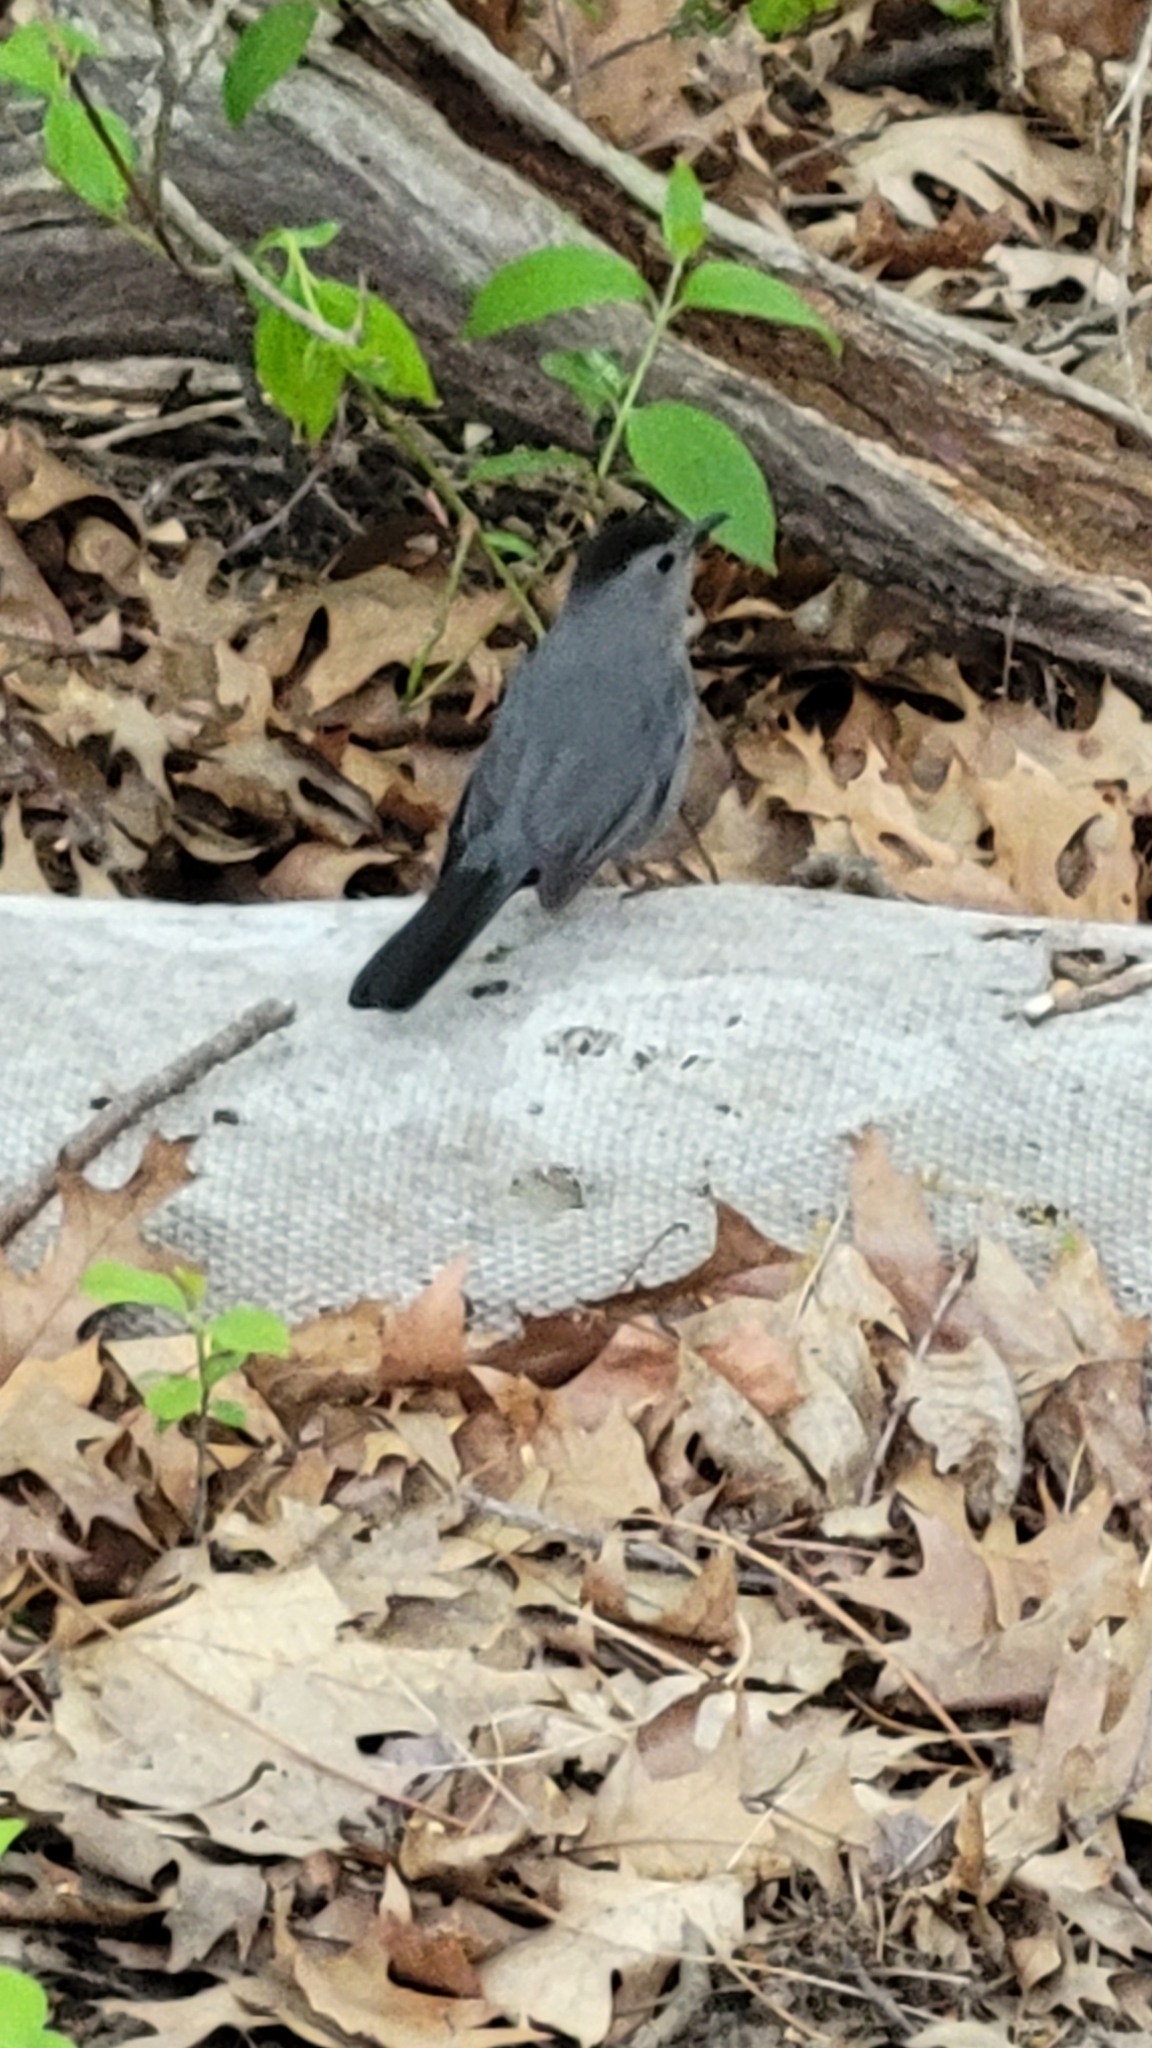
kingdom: Animalia
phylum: Chordata
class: Aves
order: Passeriformes
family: Mimidae
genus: Dumetella
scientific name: Dumetella carolinensis
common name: Gray catbird
